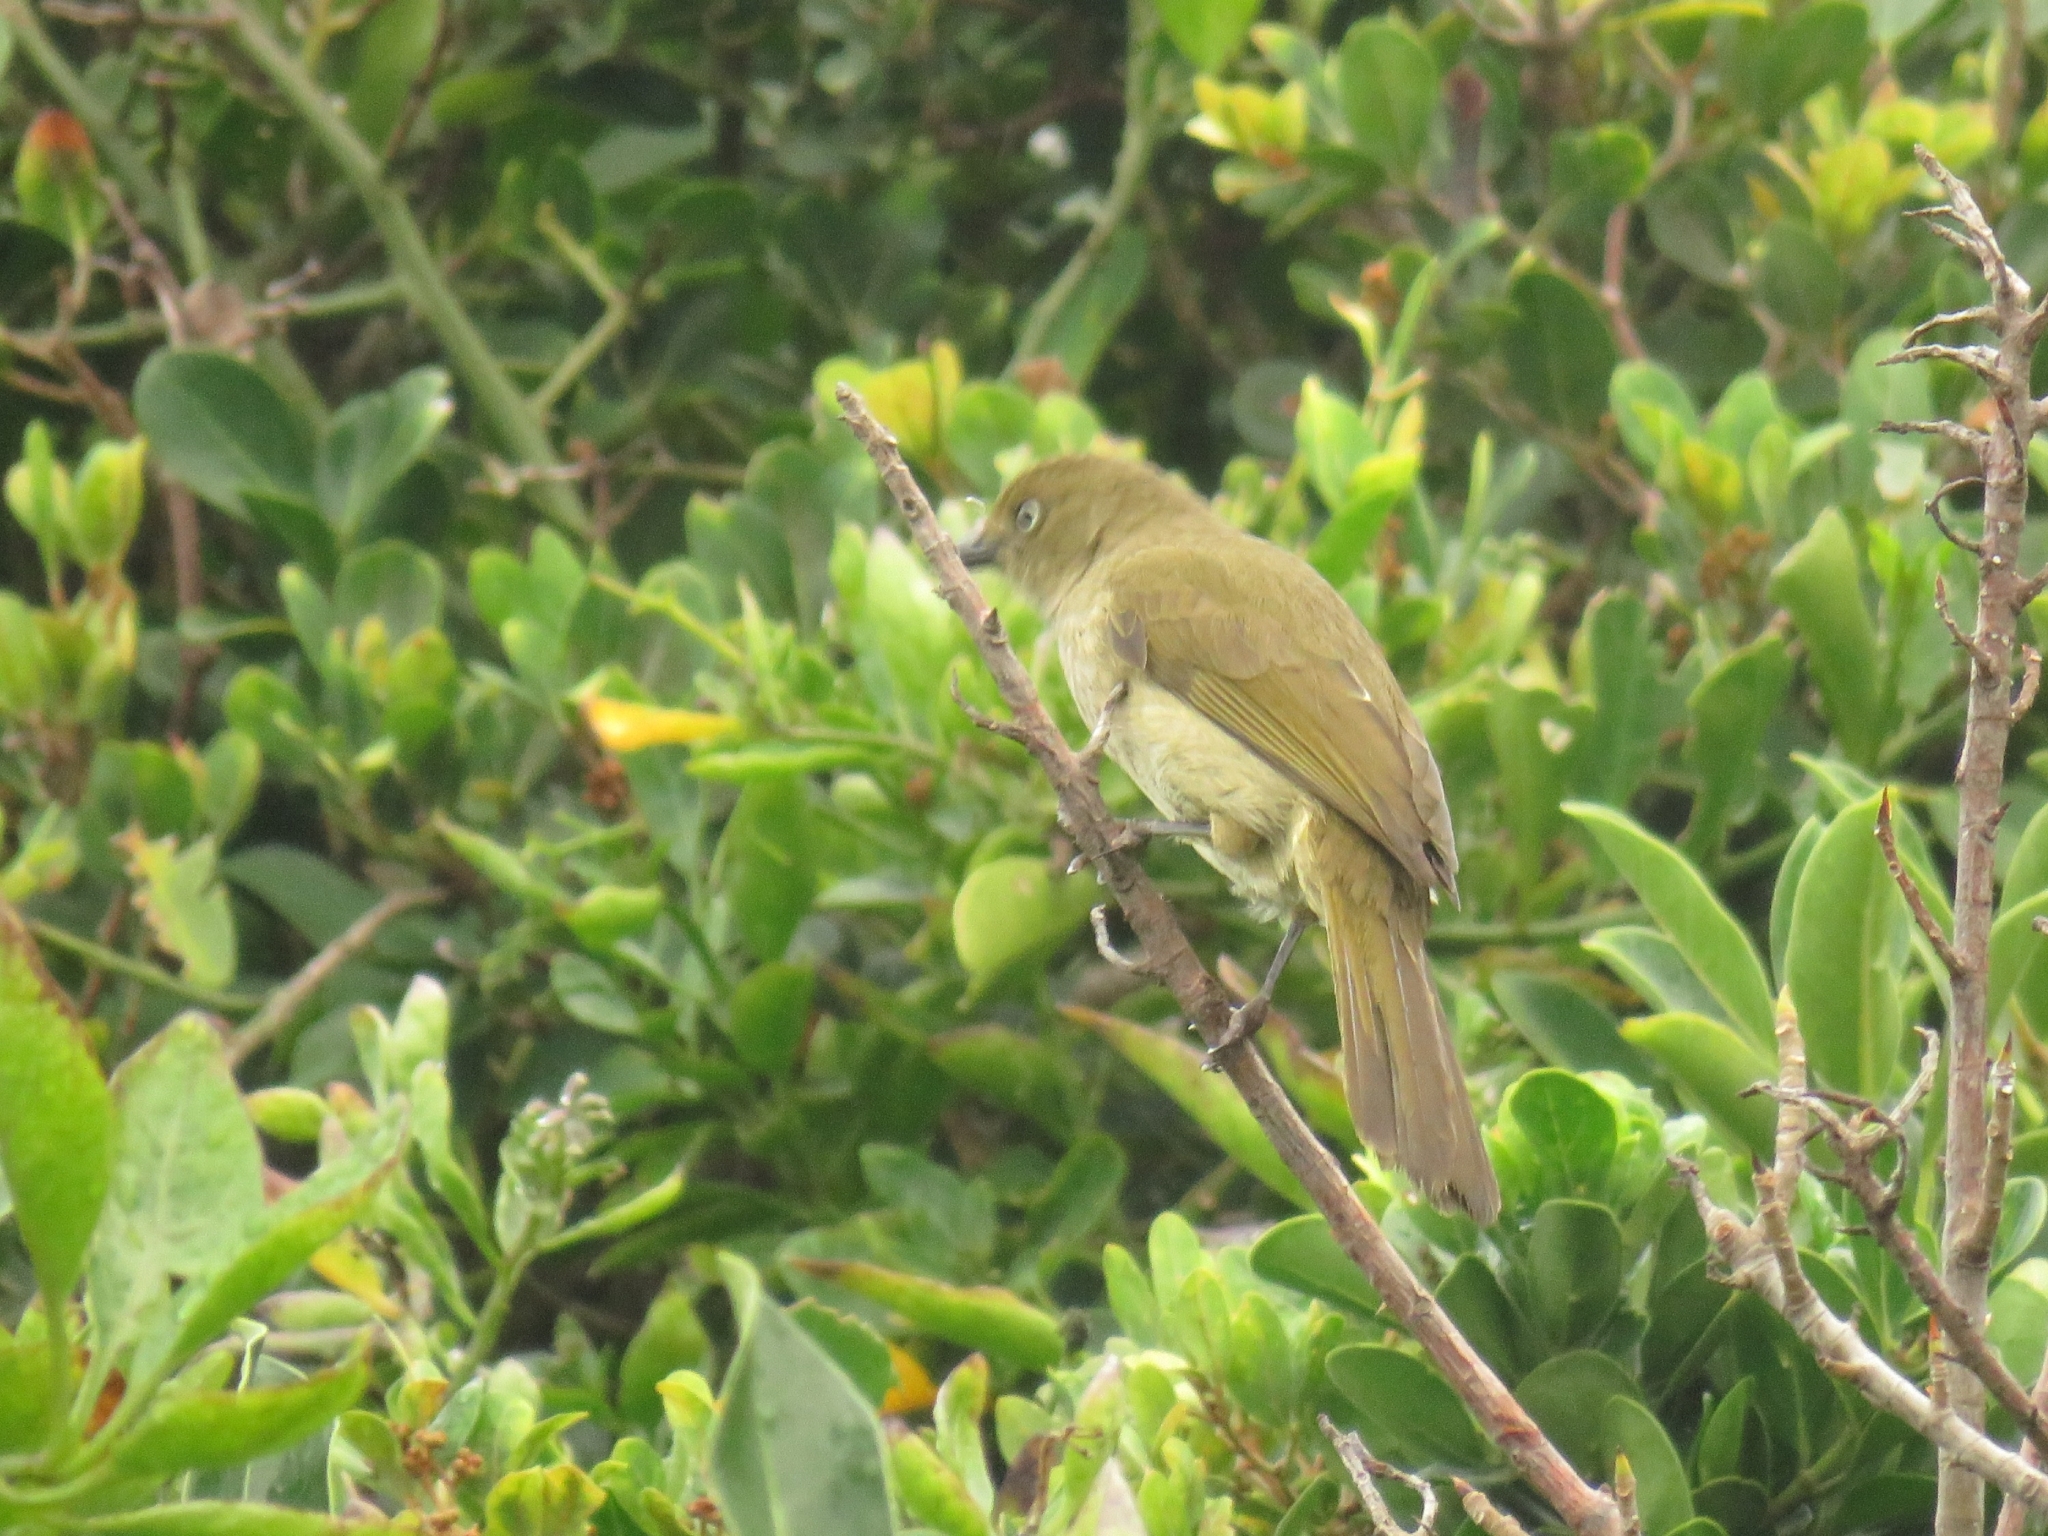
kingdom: Animalia
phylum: Chordata
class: Aves
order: Passeriformes
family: Pycnonotidae
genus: Andropadus
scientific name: Andropadus importunus
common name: Sombre greenbul
